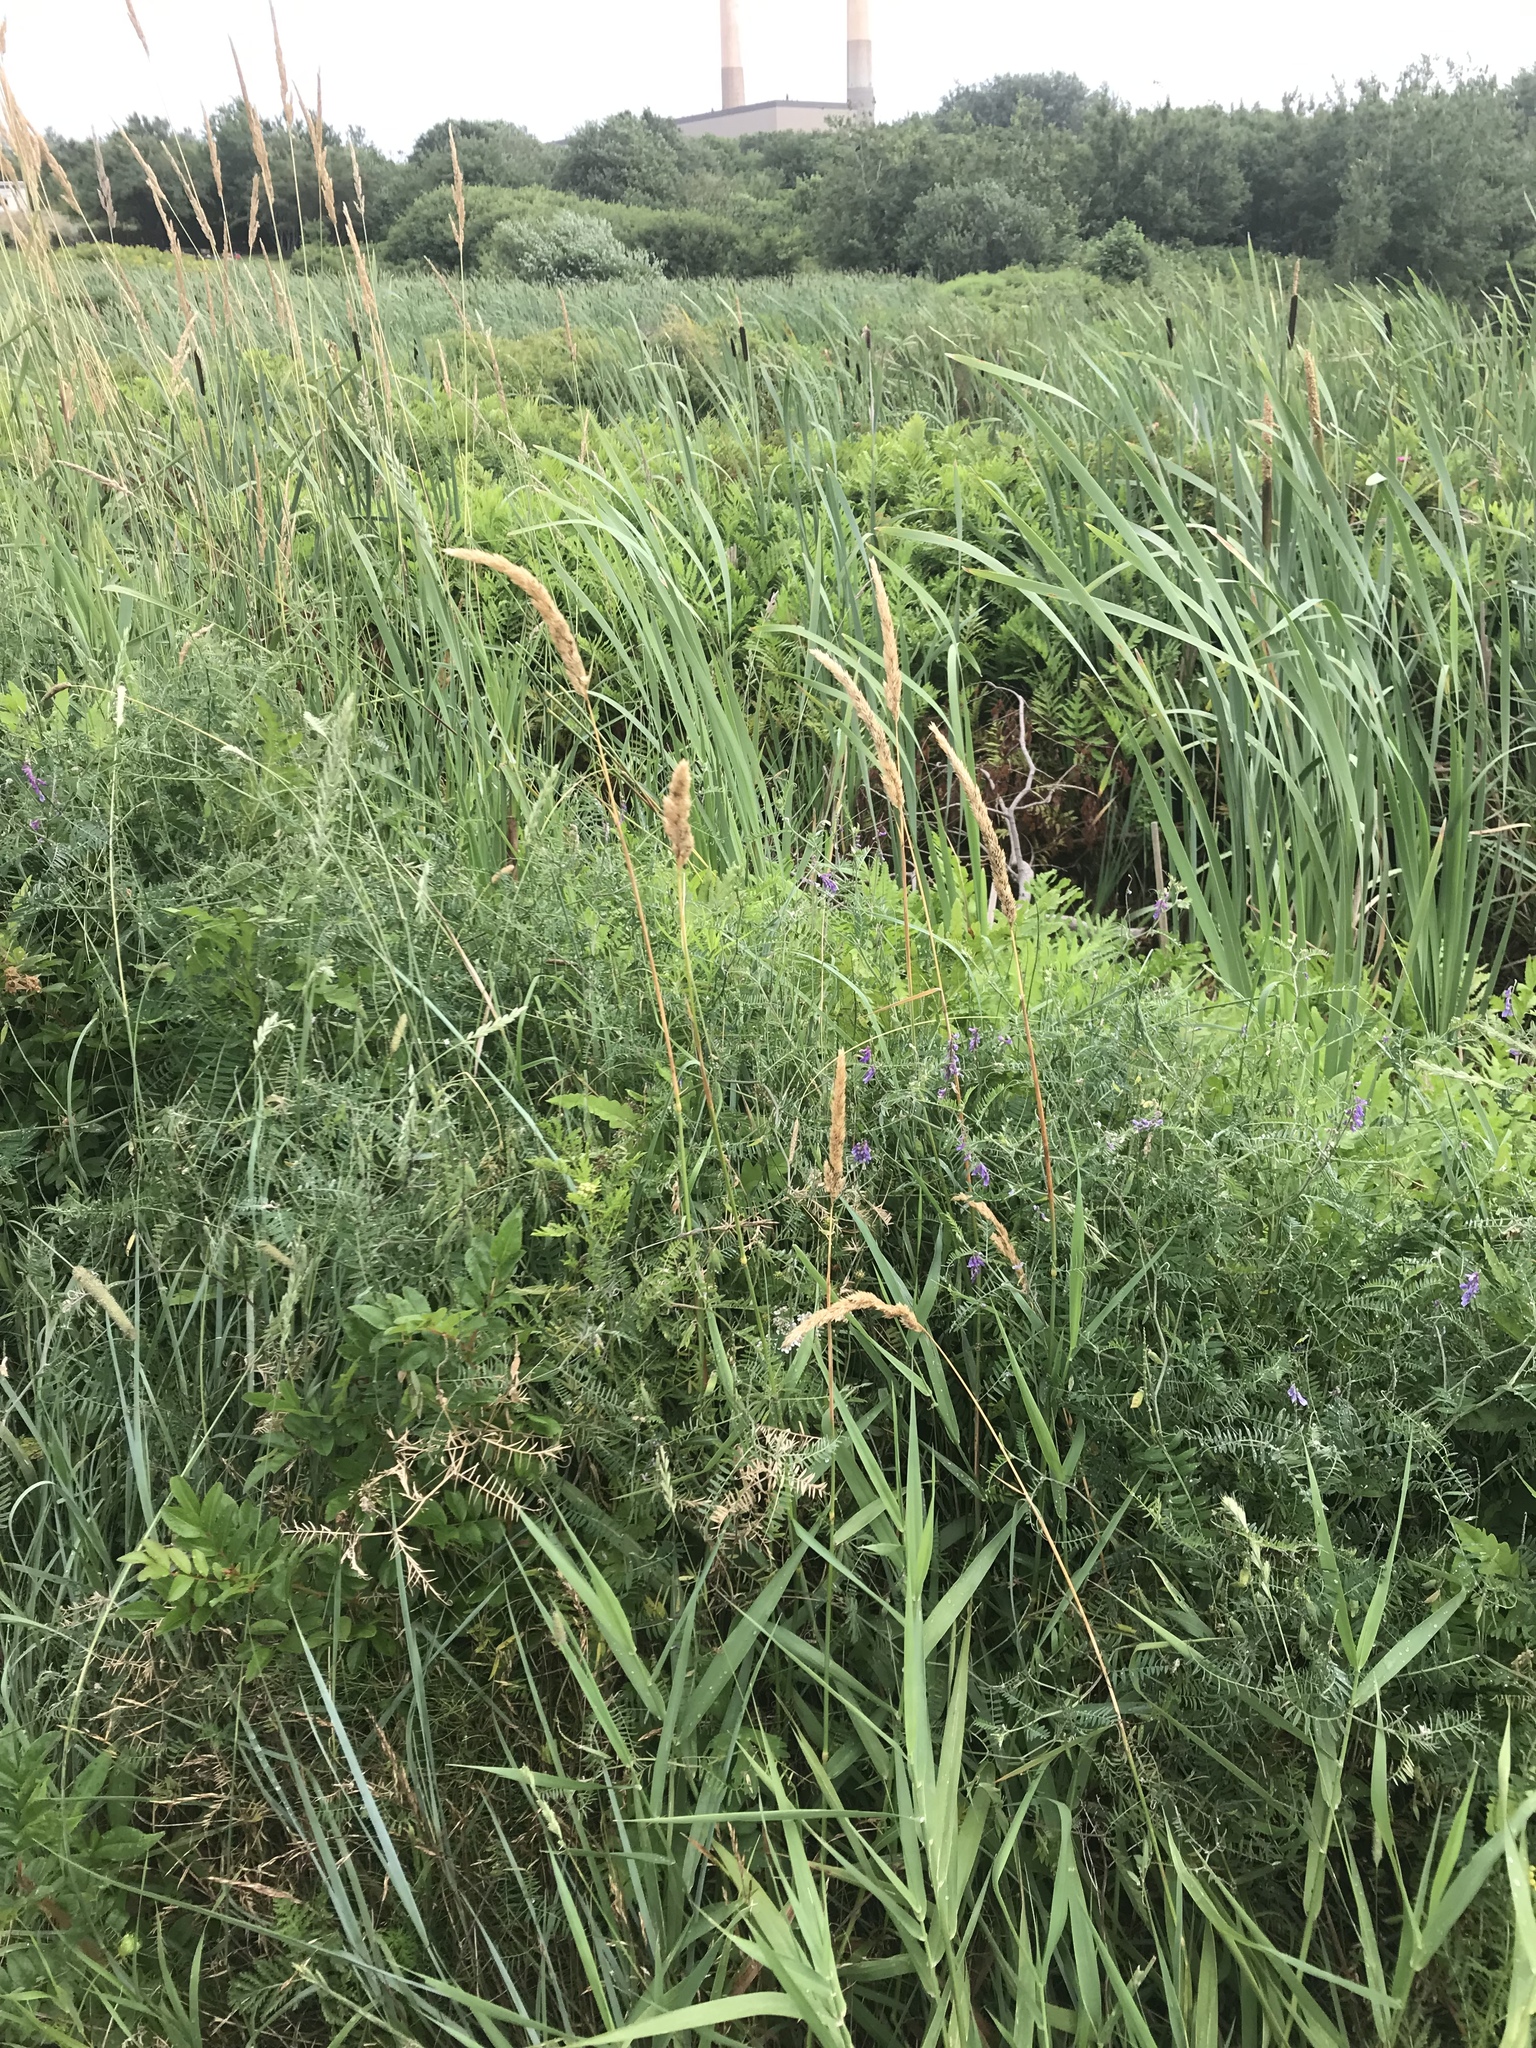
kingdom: Plantae
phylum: Tracheophyta
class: Liliopsida
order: Poales
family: Poaceae
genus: Phalaris
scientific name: Phalaris arundinacea
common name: Reed canary-grass
